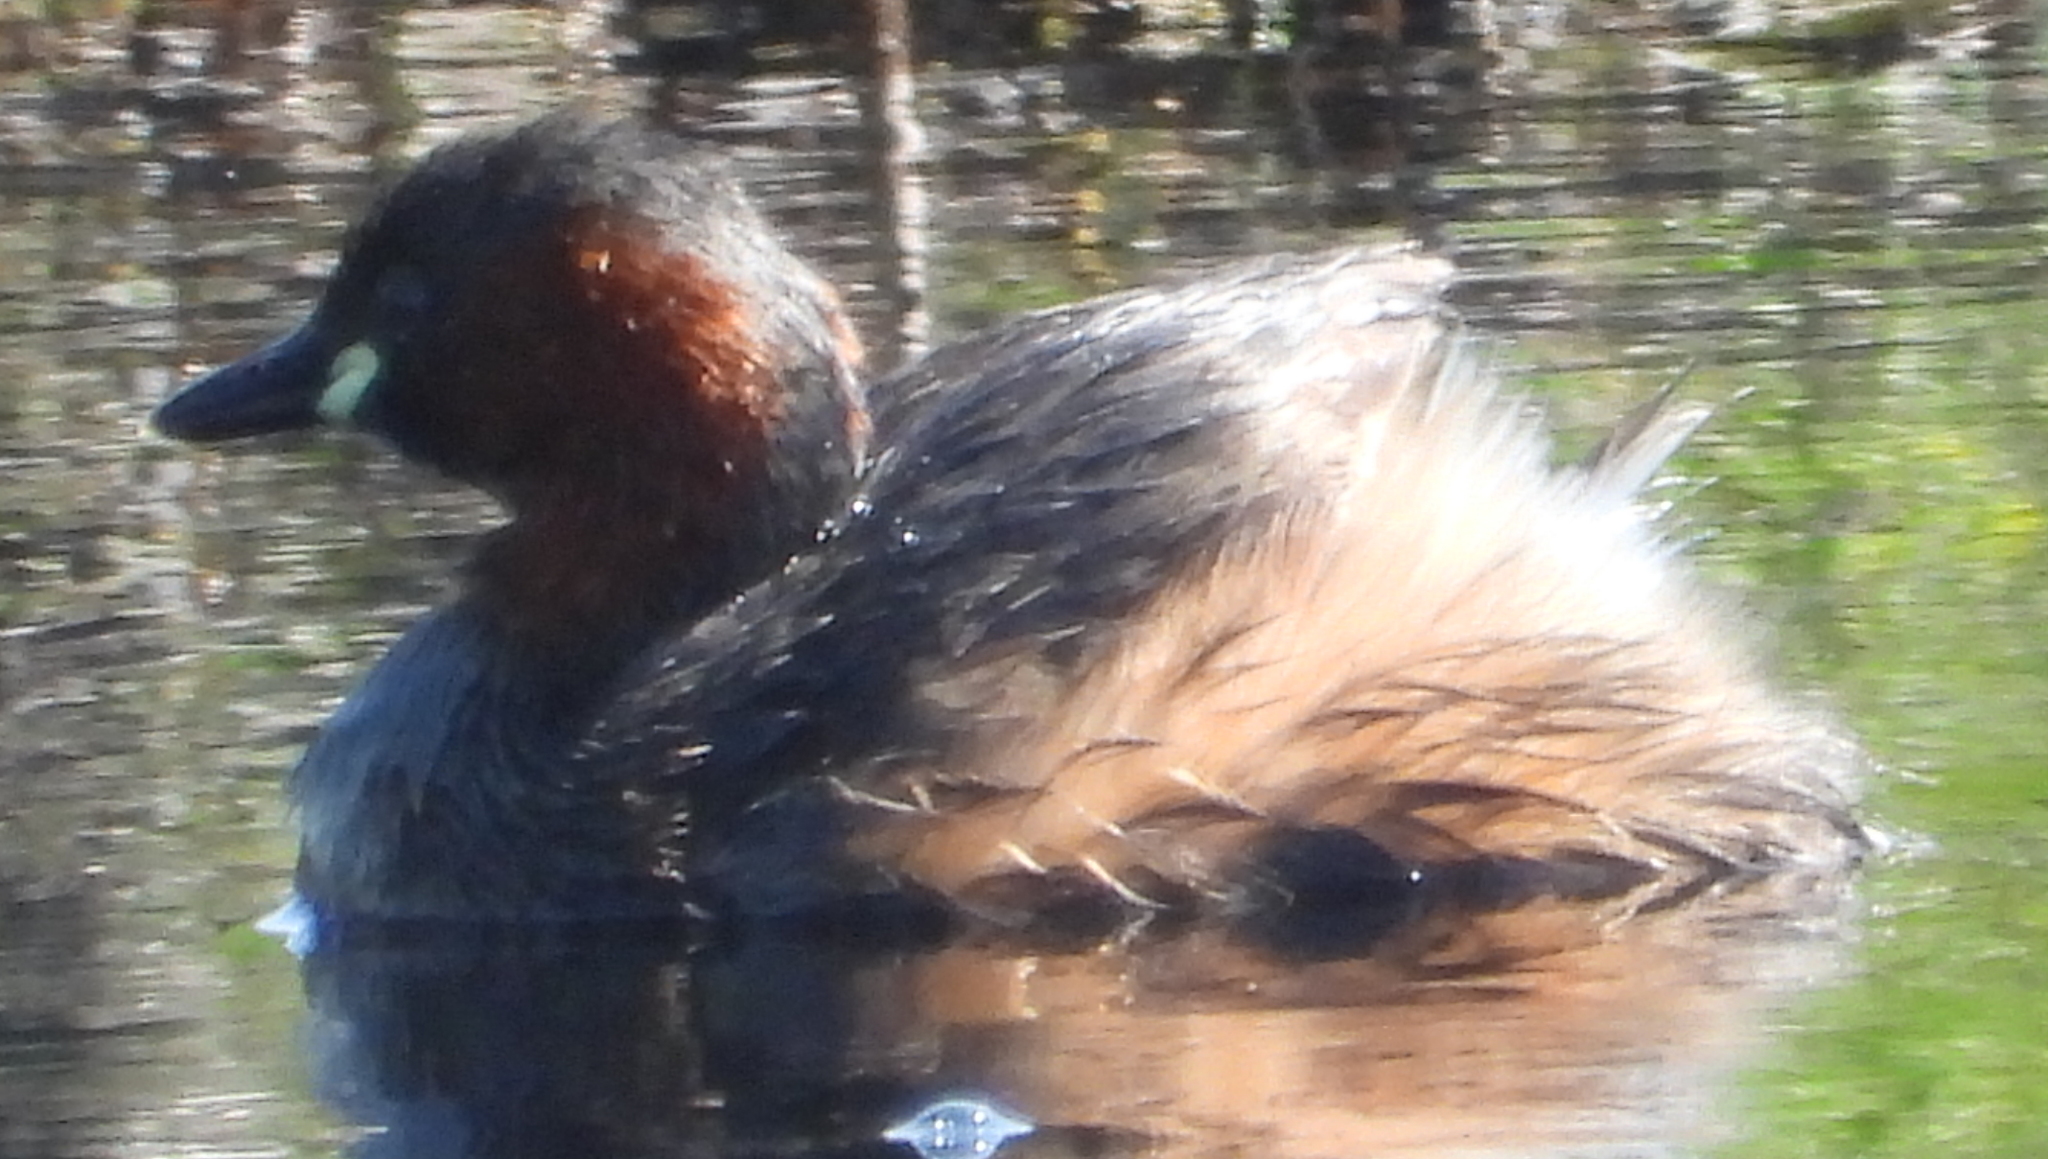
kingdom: Animalia
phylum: Chordata
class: Aves
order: Podicipediformes
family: Podicipedidae
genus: Tachybaptus
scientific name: Tachybaptus ruficollis
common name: Little grebe
